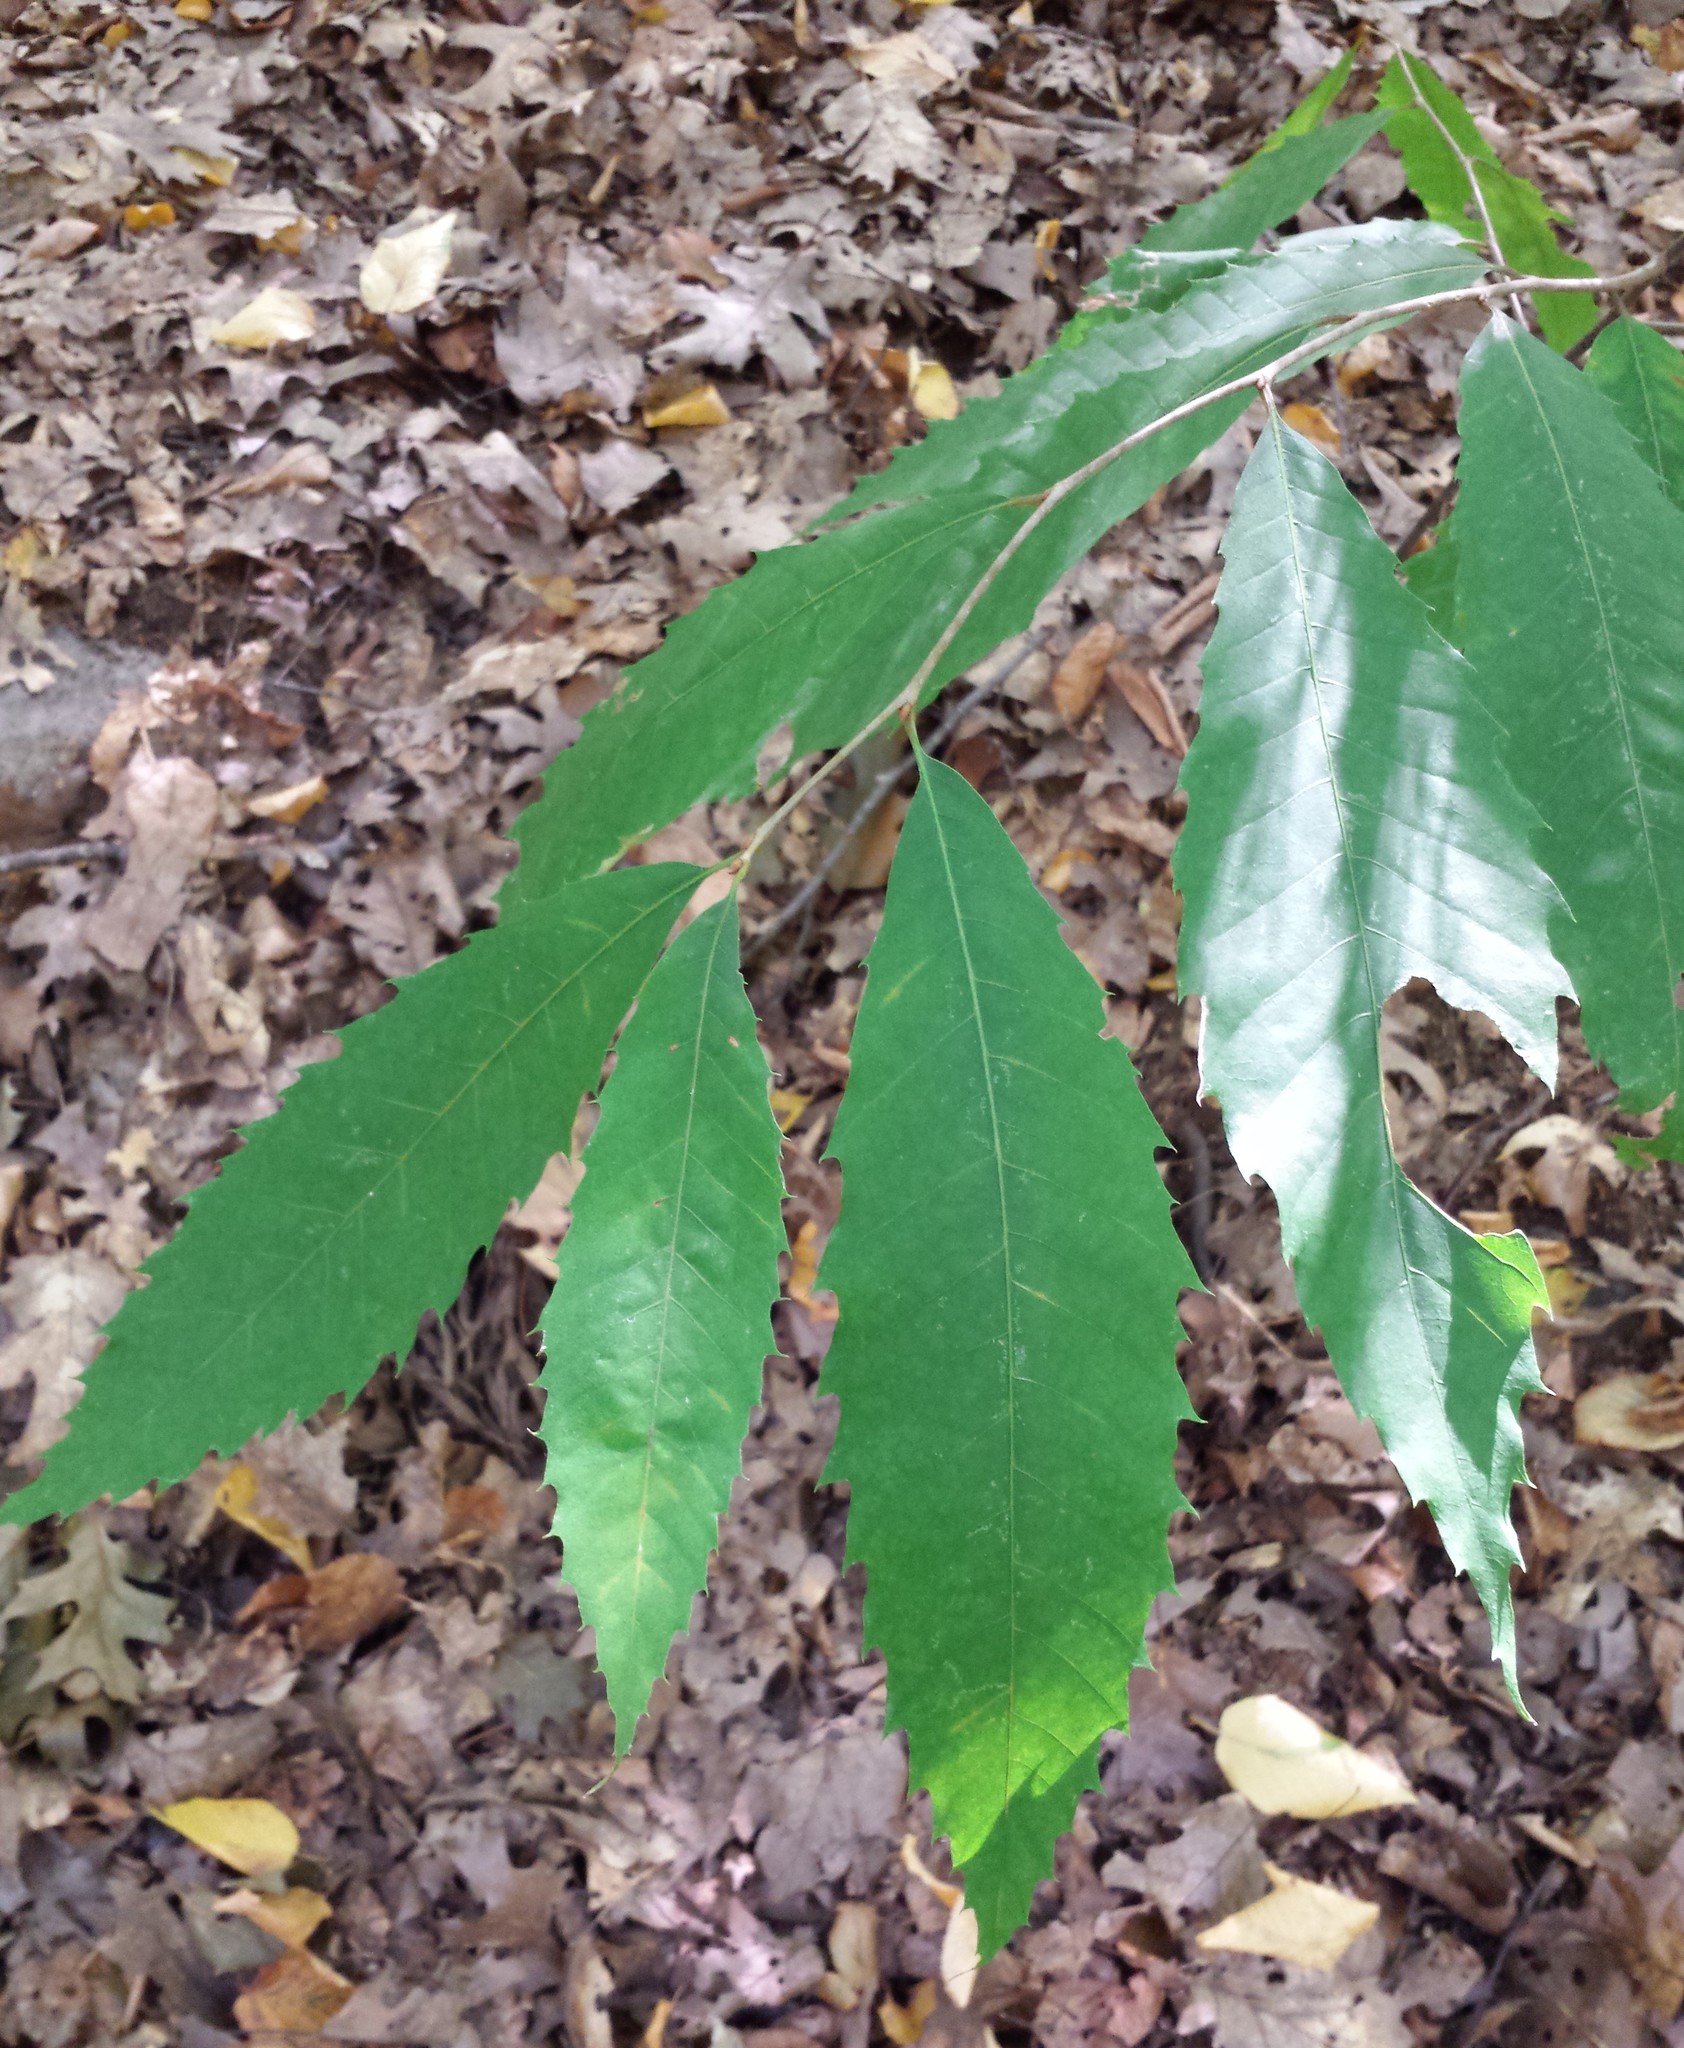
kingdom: Plantae
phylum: Tracheophyta
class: Magnoliopsida
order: Fagales
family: Fagaceae
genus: Castanea
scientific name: Castanea dentata
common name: American chestnut
